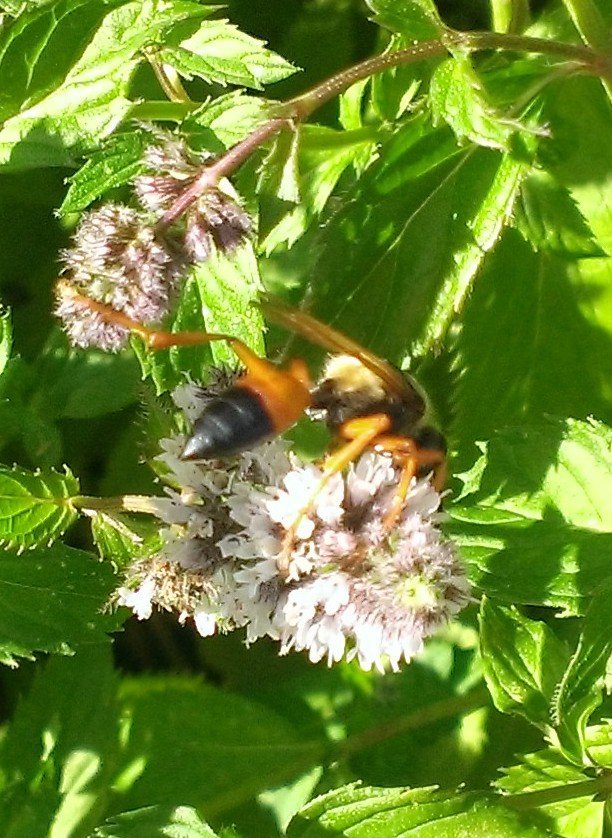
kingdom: Animalia
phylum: Arthropoda
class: Insecta
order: Hymenoptera
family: Sphecidae
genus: Sphex
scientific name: Sphex ichneumoneus
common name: Great golden digger wasp
